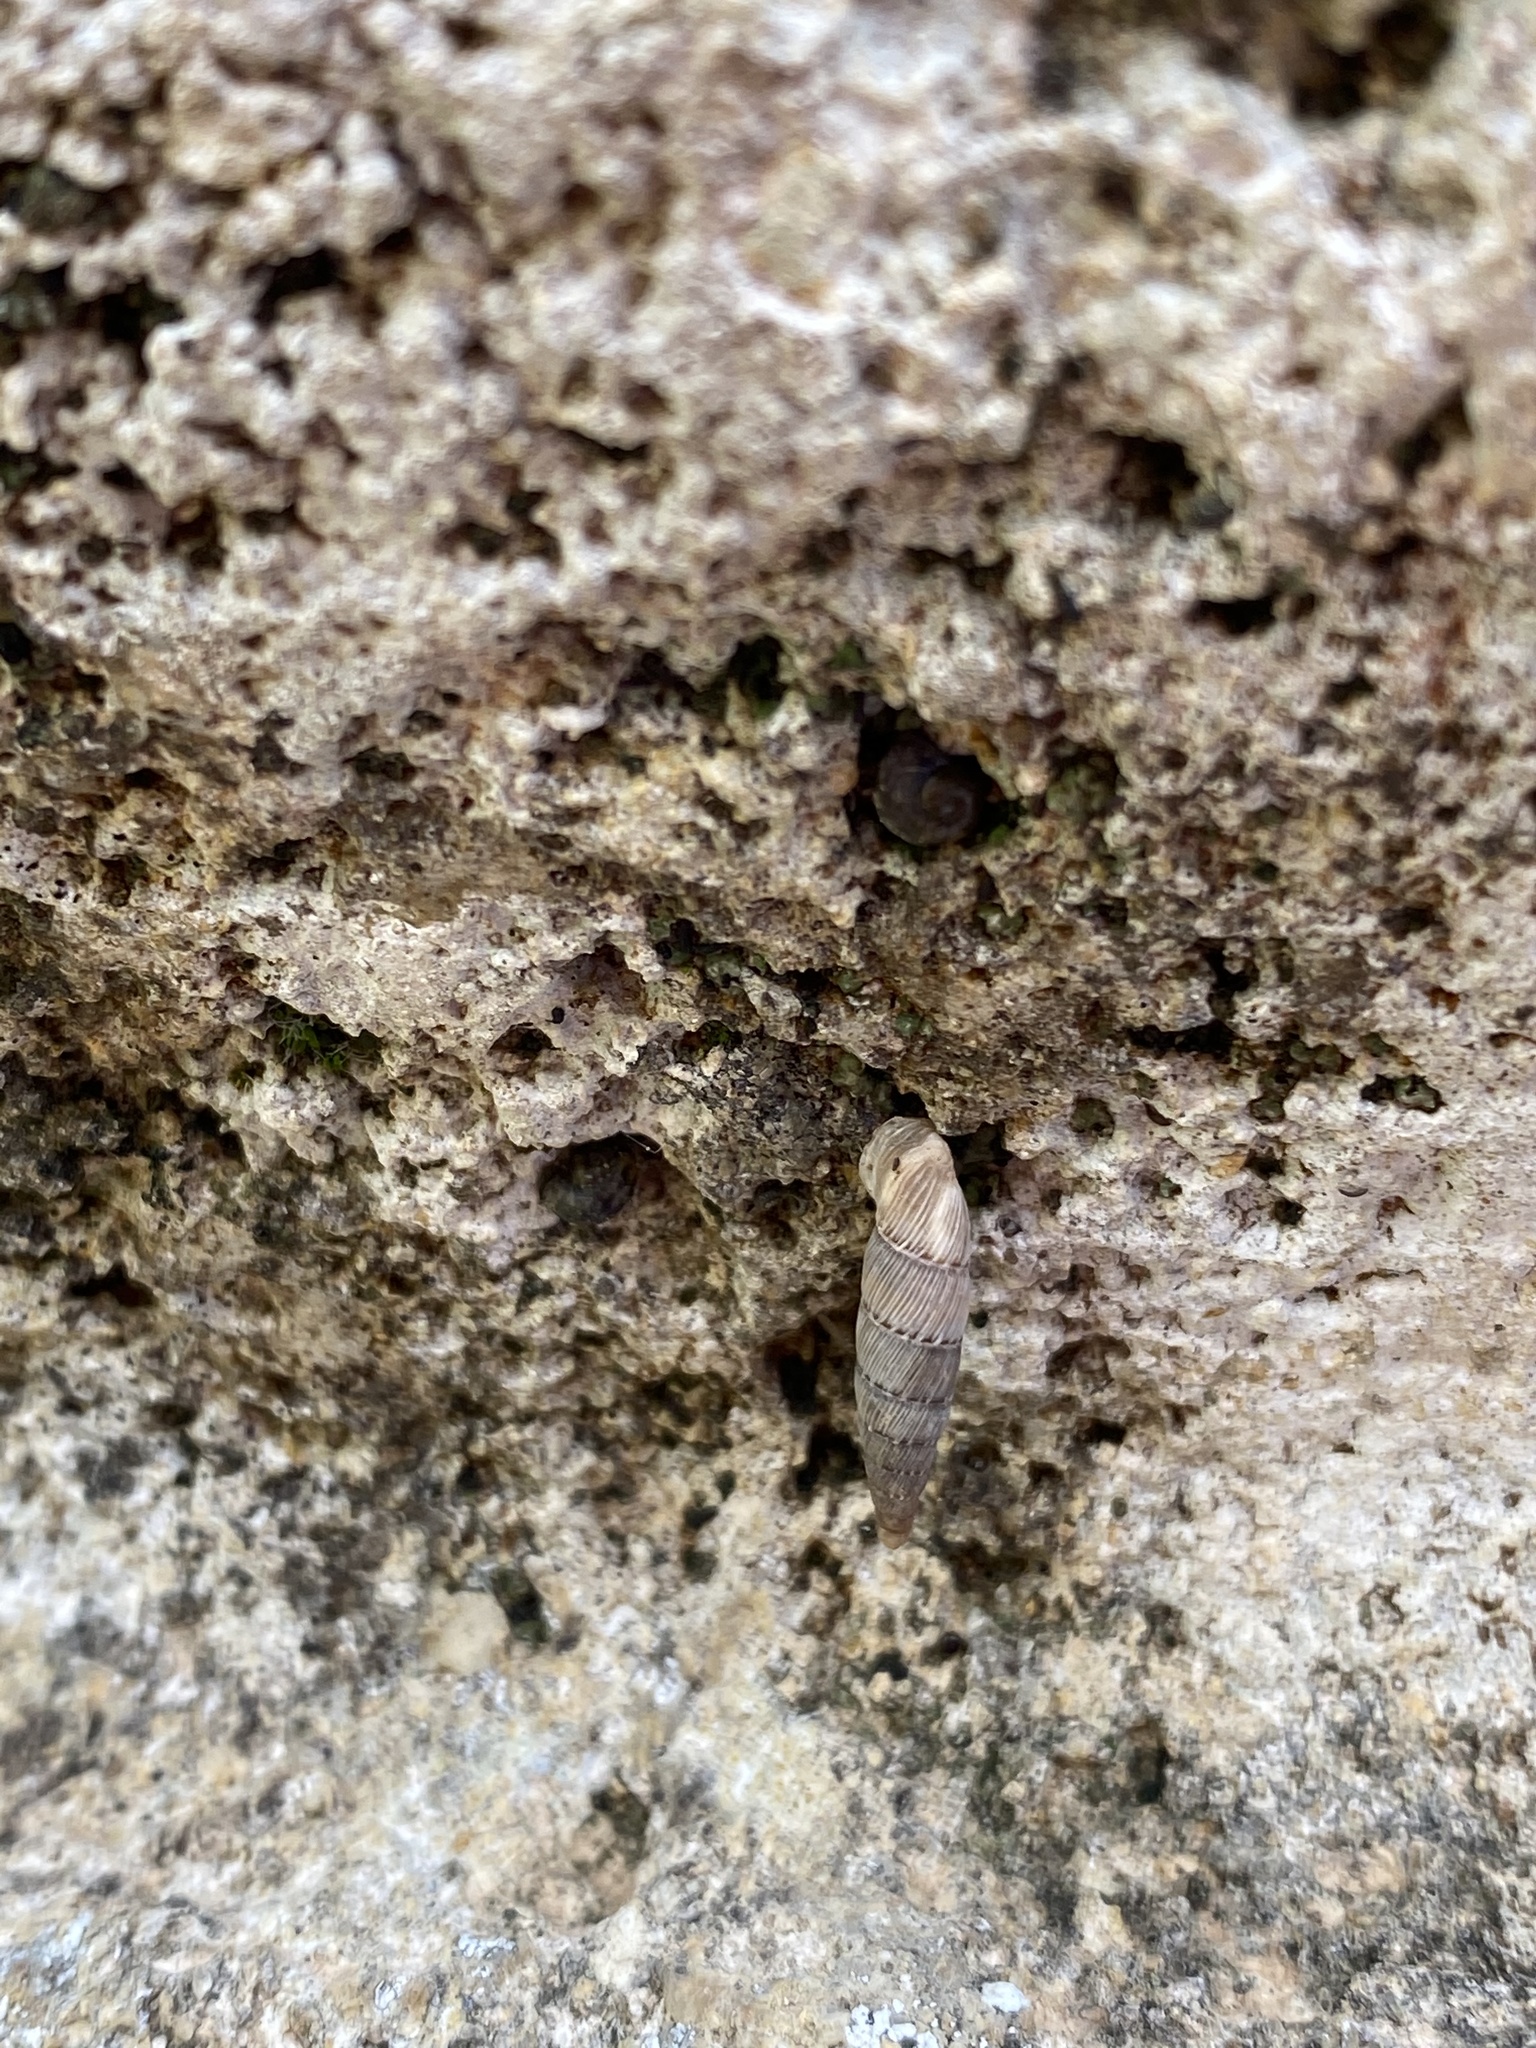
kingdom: Animalia
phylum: Mollusca
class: Gastropoda
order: Stylommatophora
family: Clausiliidae
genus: Papillifera
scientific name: Papillifera papillaris
